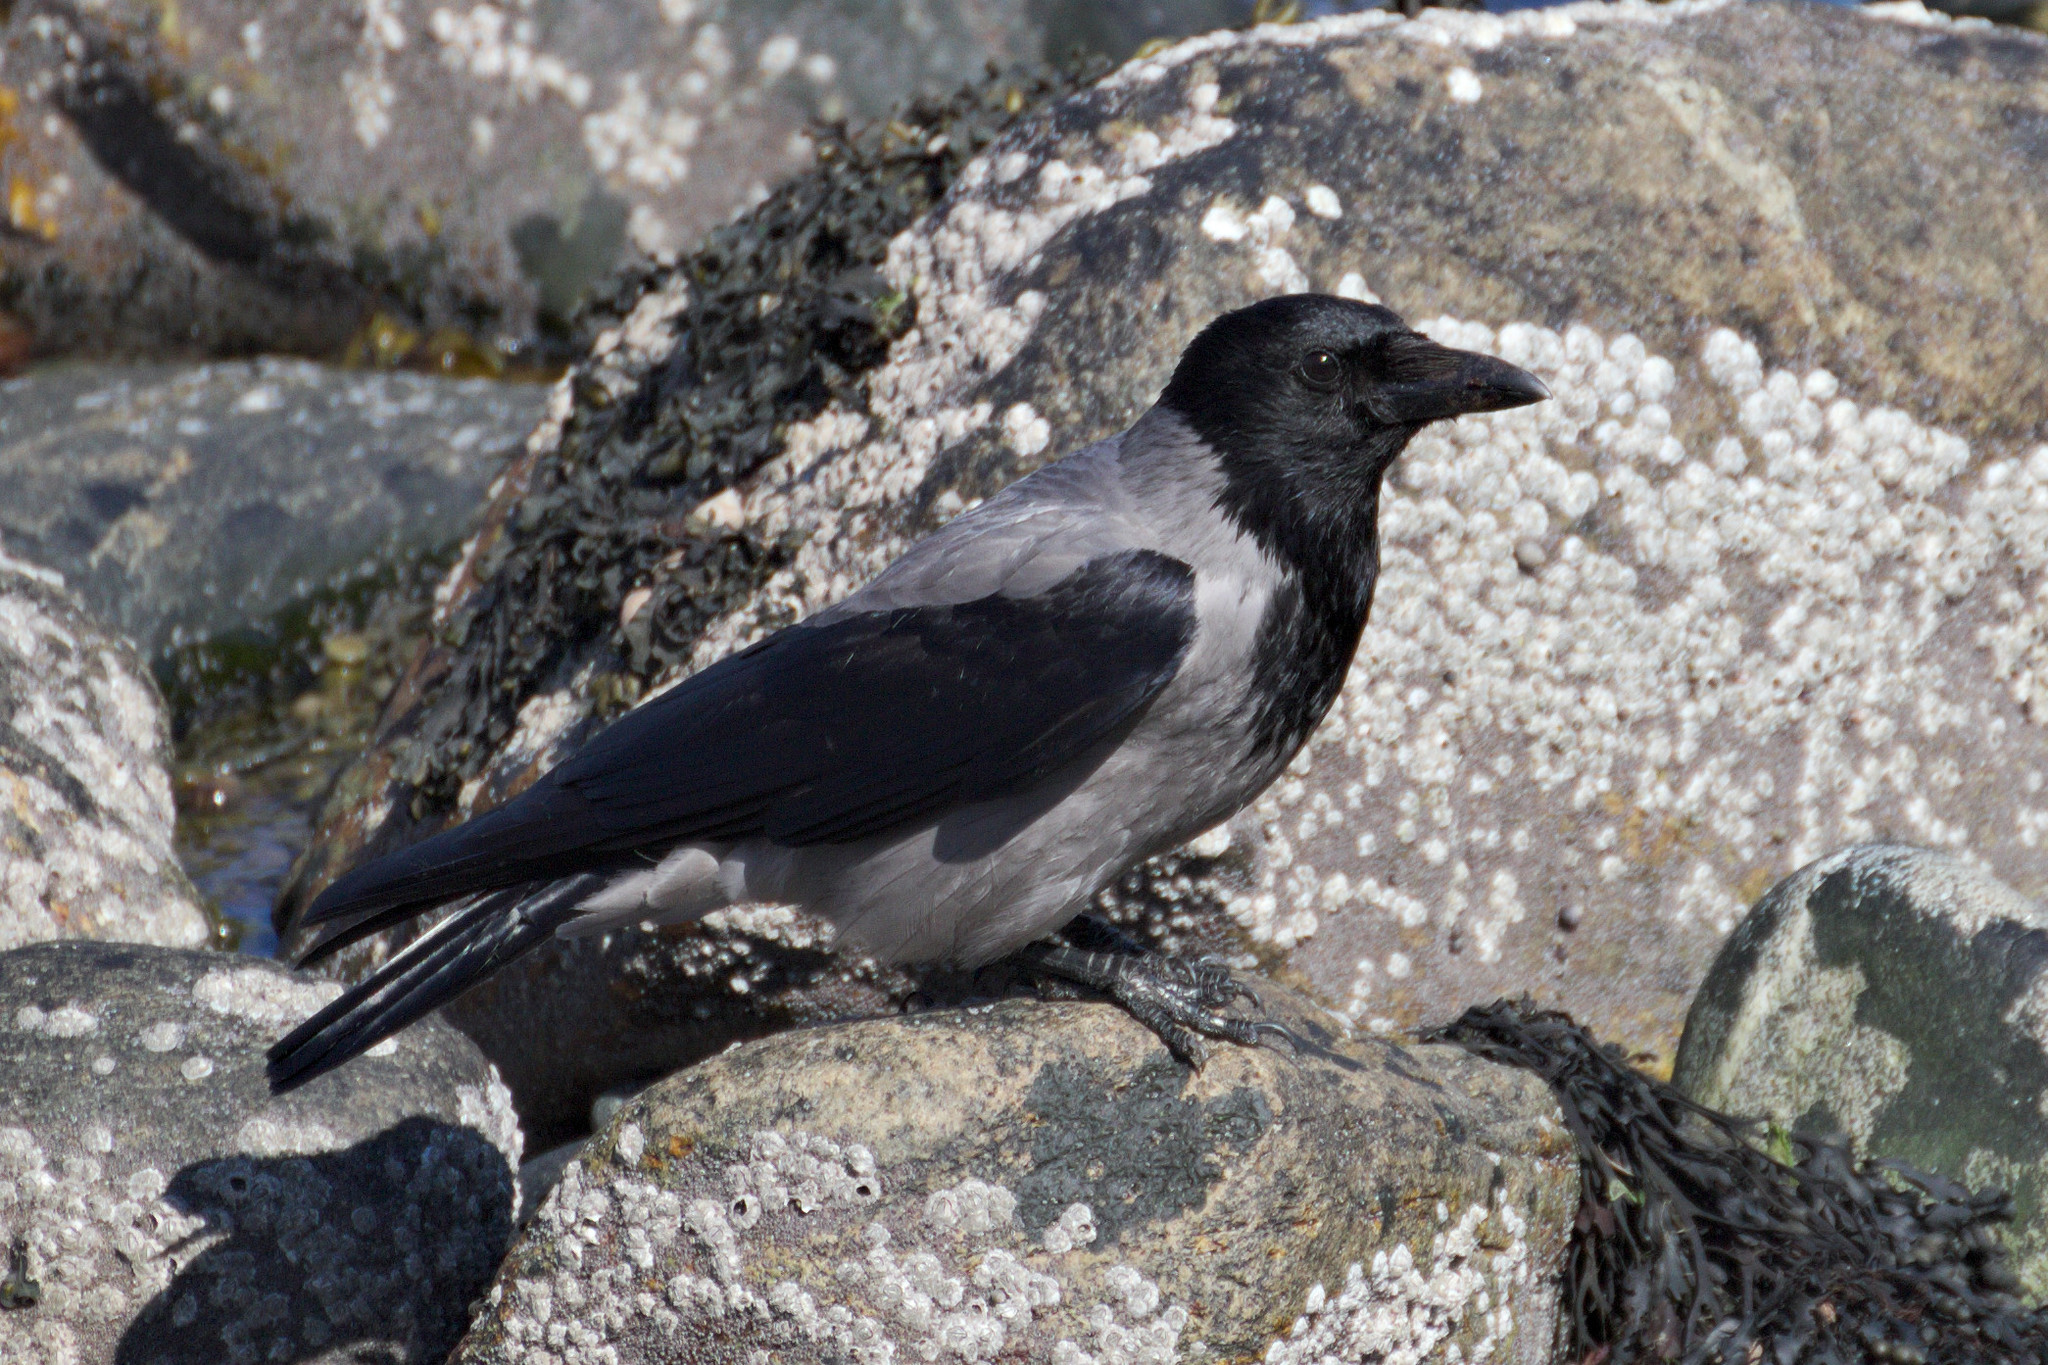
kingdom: Animalia
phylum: Chordata
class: Aves
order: Passeriformes
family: Corvidae
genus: Corvus
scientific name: Corvus cornix
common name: Hooded crow
